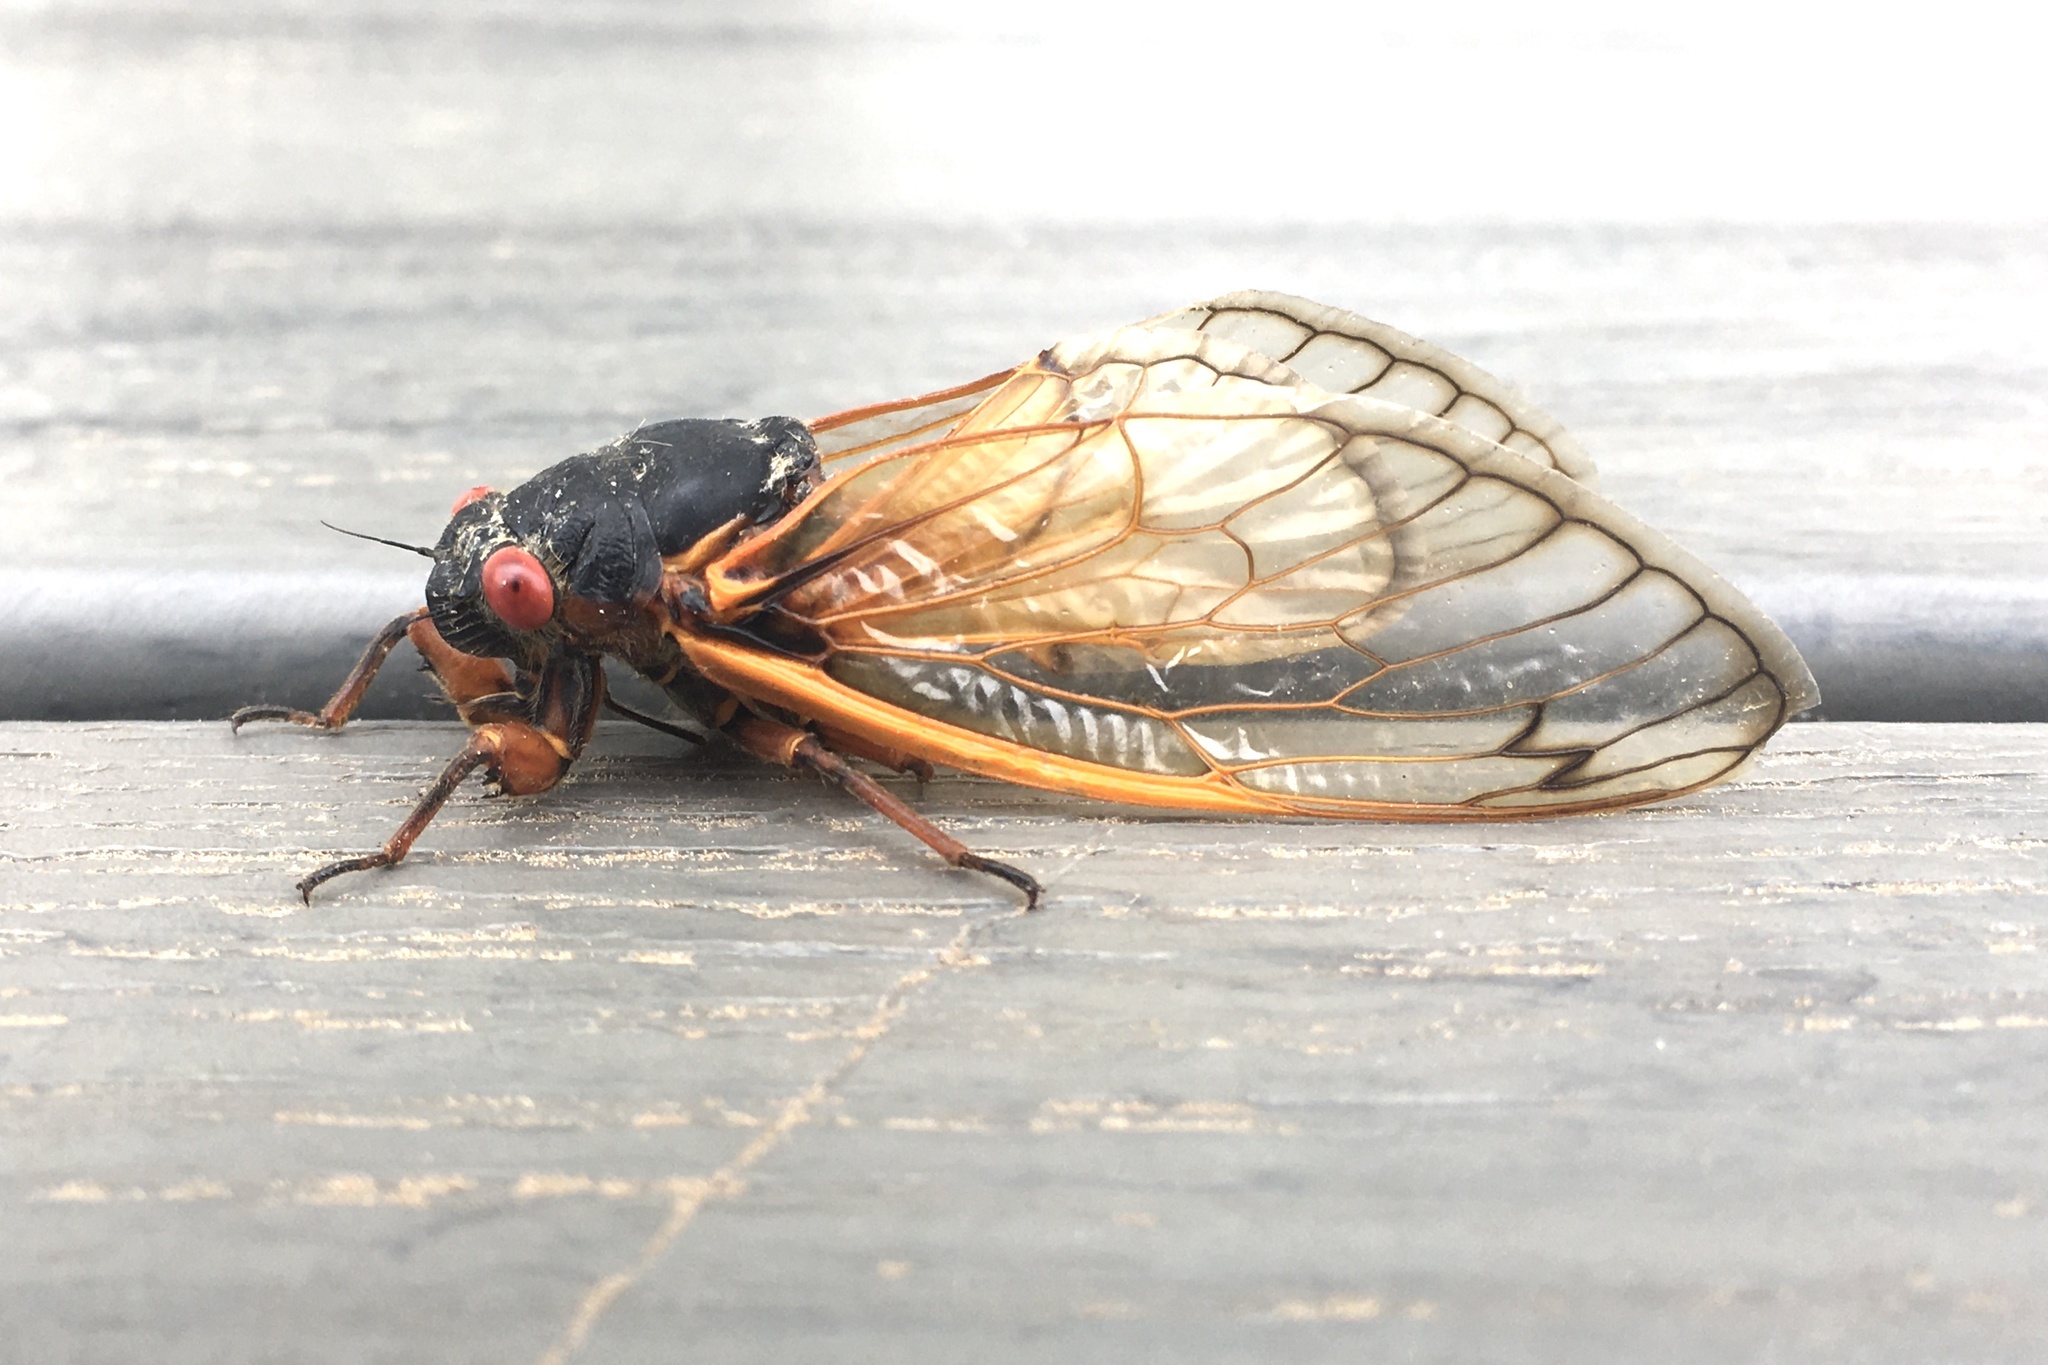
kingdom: Animalia
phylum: Arthropoda
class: Insecta
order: Hemiptera
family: Cicadidae
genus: Magicicada
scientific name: Magicicada septendecim
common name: Periodical cicada
